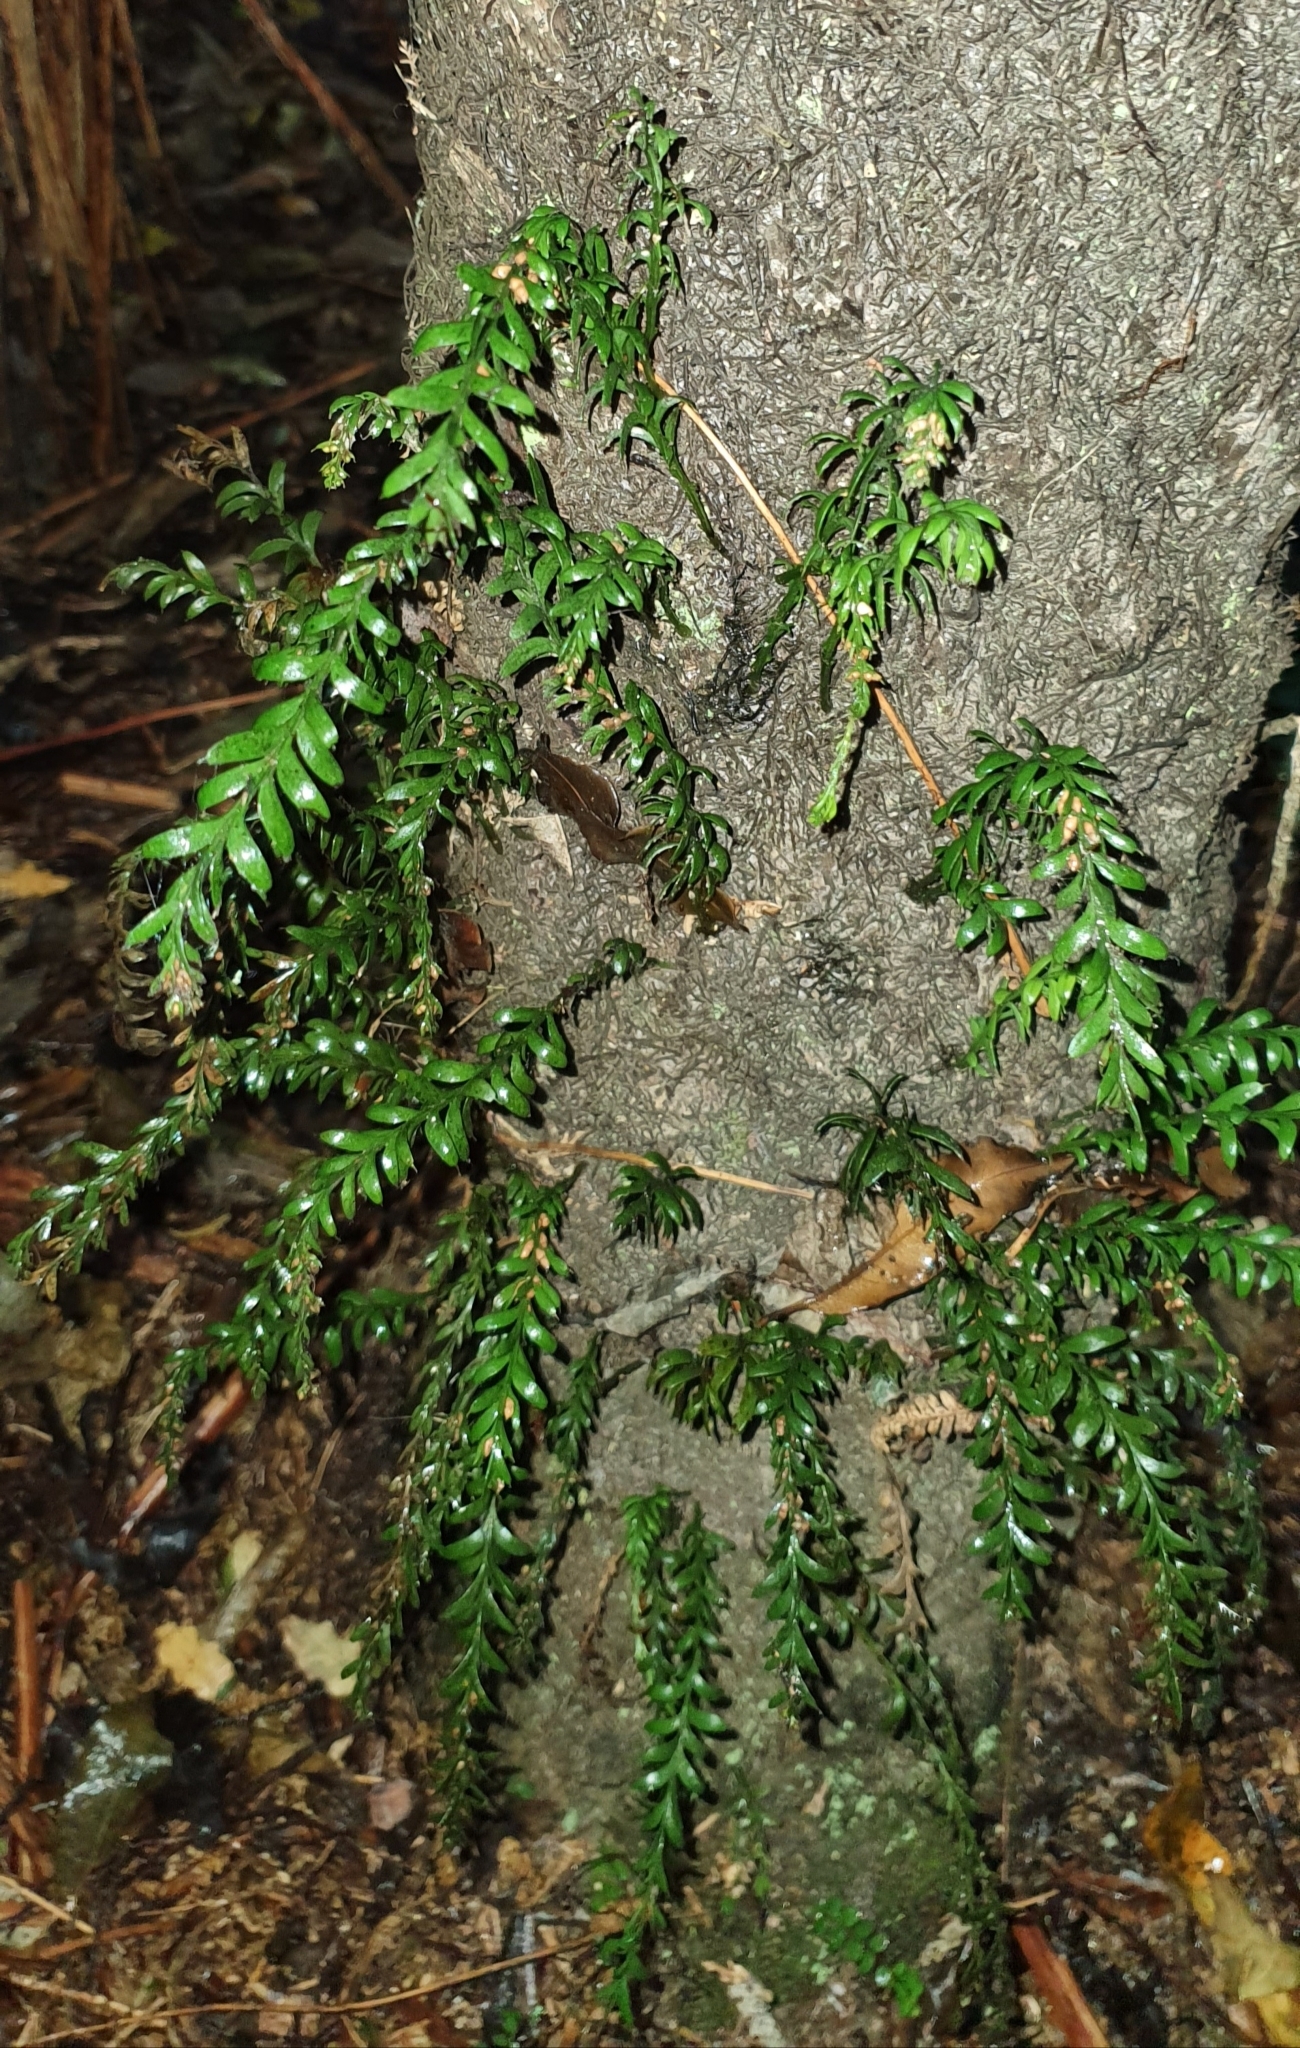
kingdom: Plantae
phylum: Tracheophyta
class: Polypodiopsida
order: Psilotales
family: Psilotaceae
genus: Tmesipteris
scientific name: Tmesipteris tannensis
